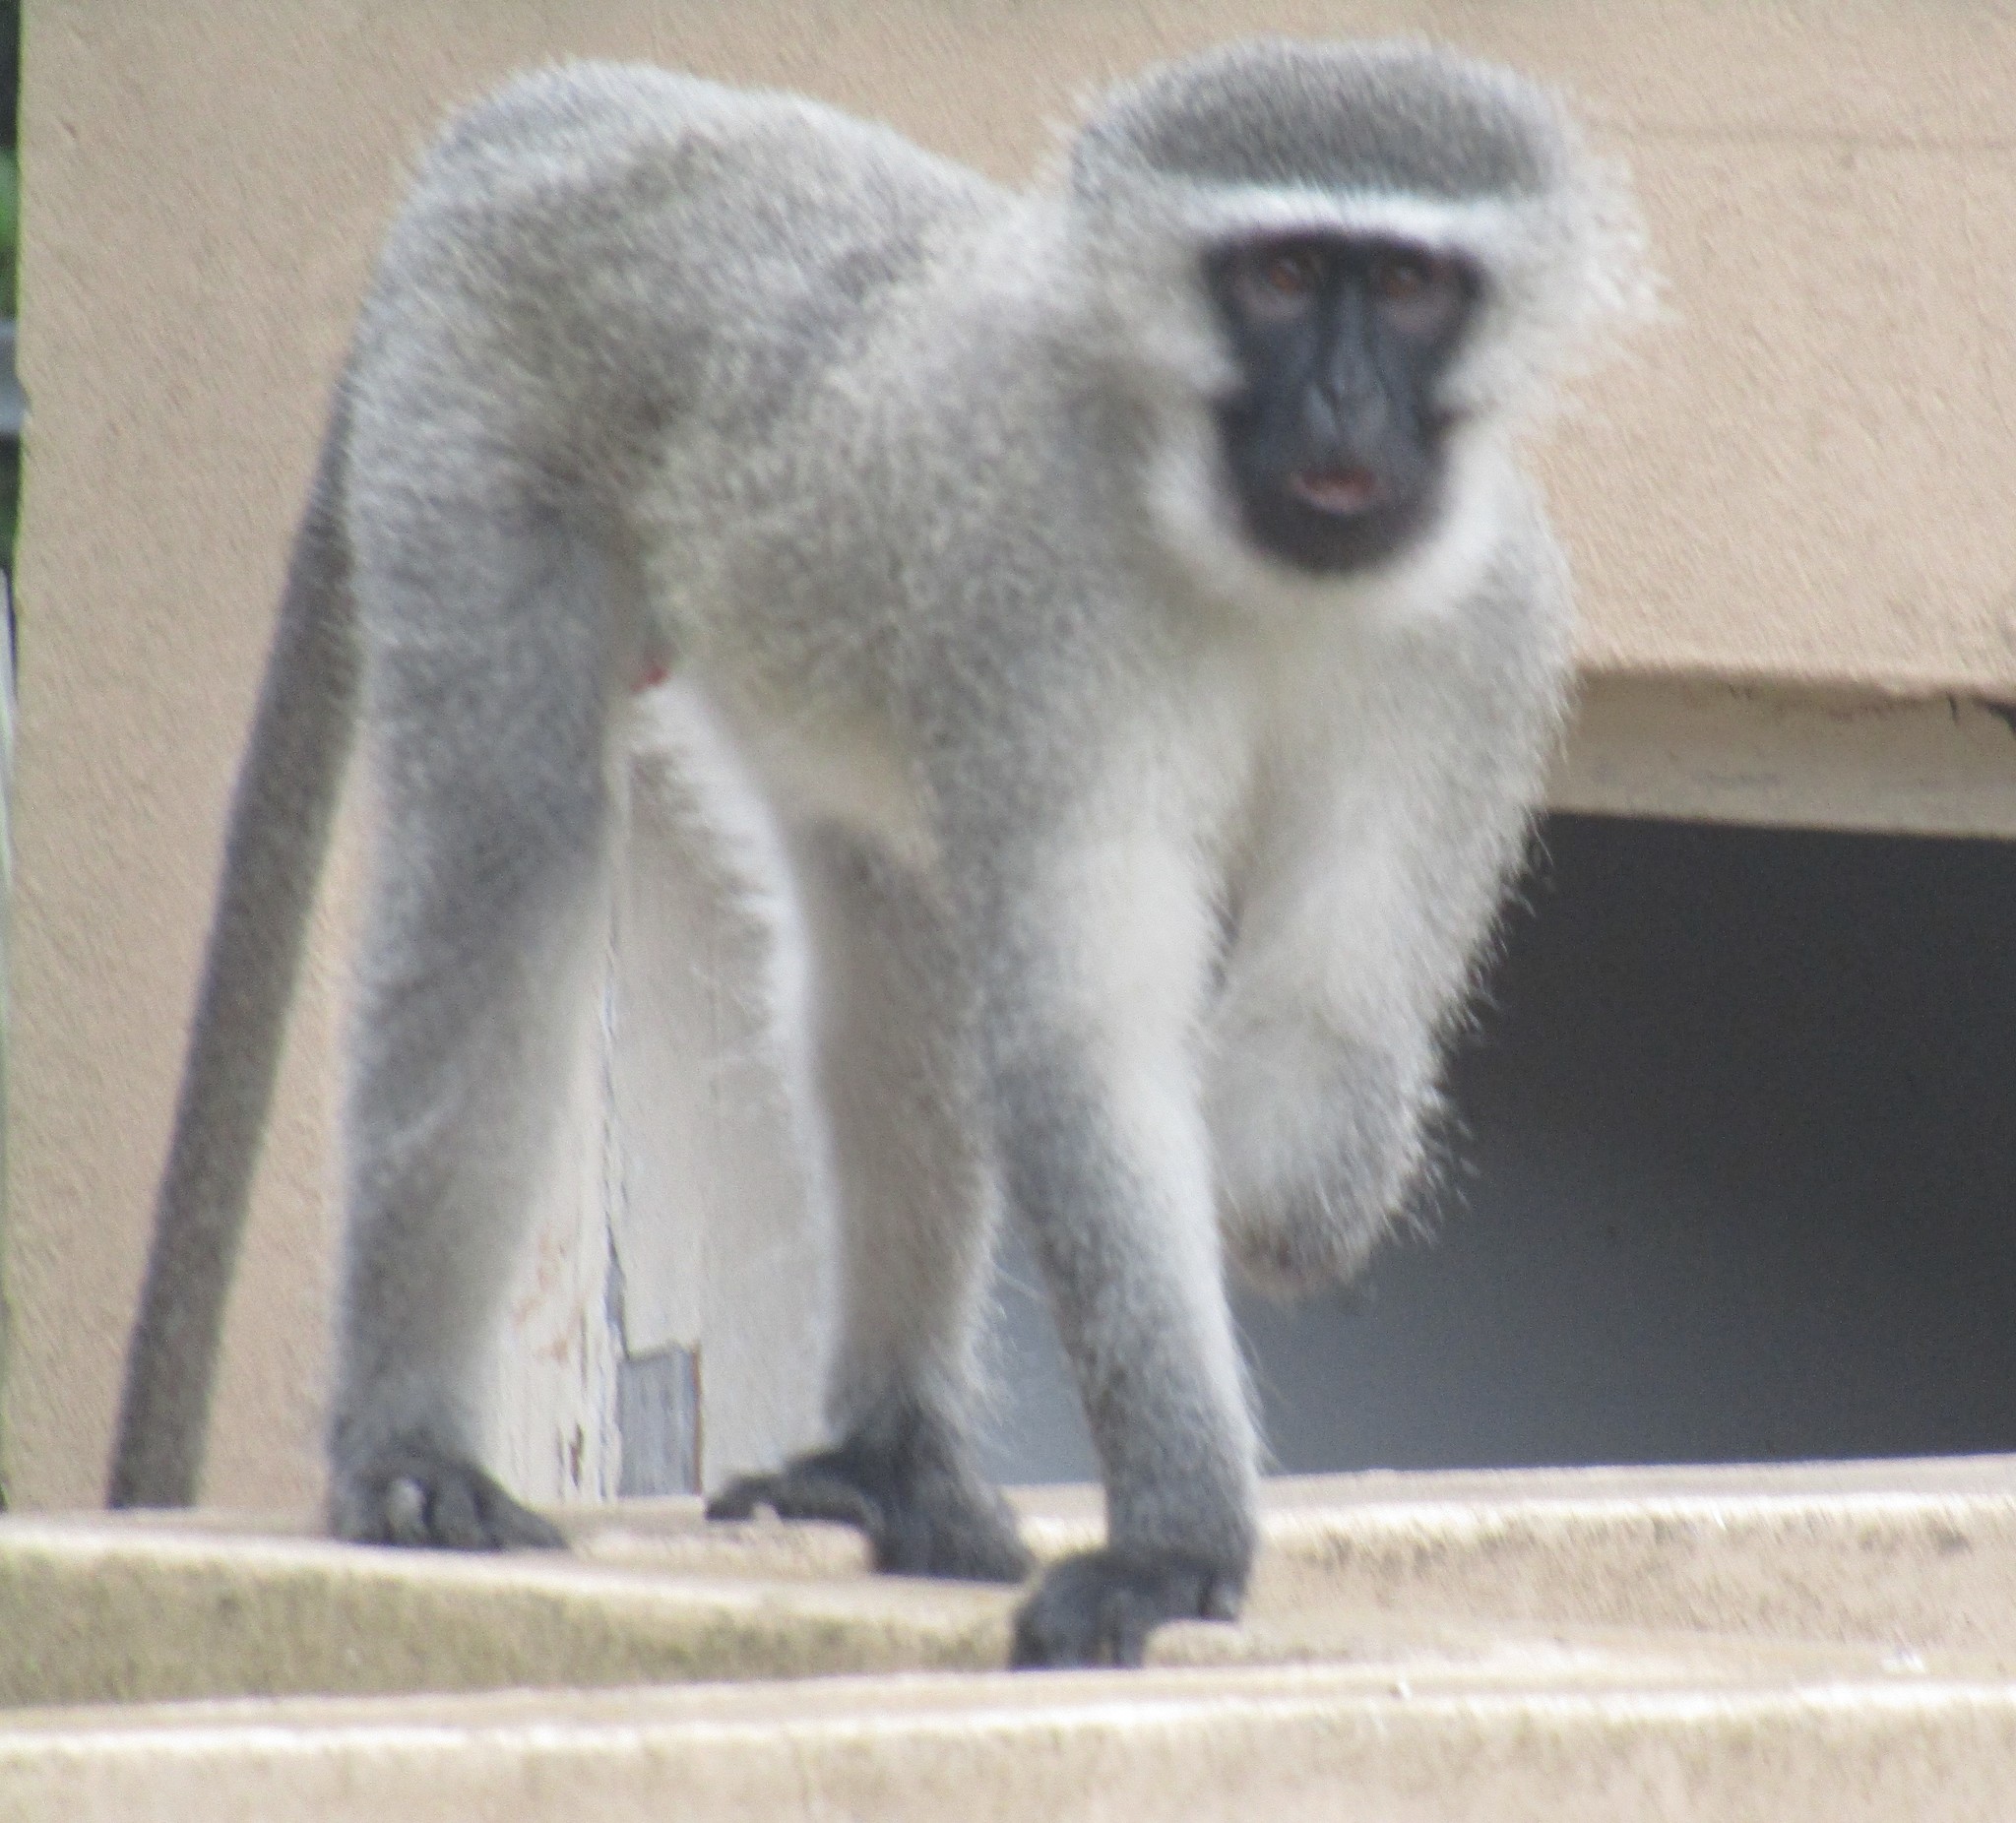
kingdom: Animalia
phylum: Chordata
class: Mammalia
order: Primates
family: Cercopithecidae
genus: Chlorocebus
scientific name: Chlorocebus pygerythrus
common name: Vervet monkey
